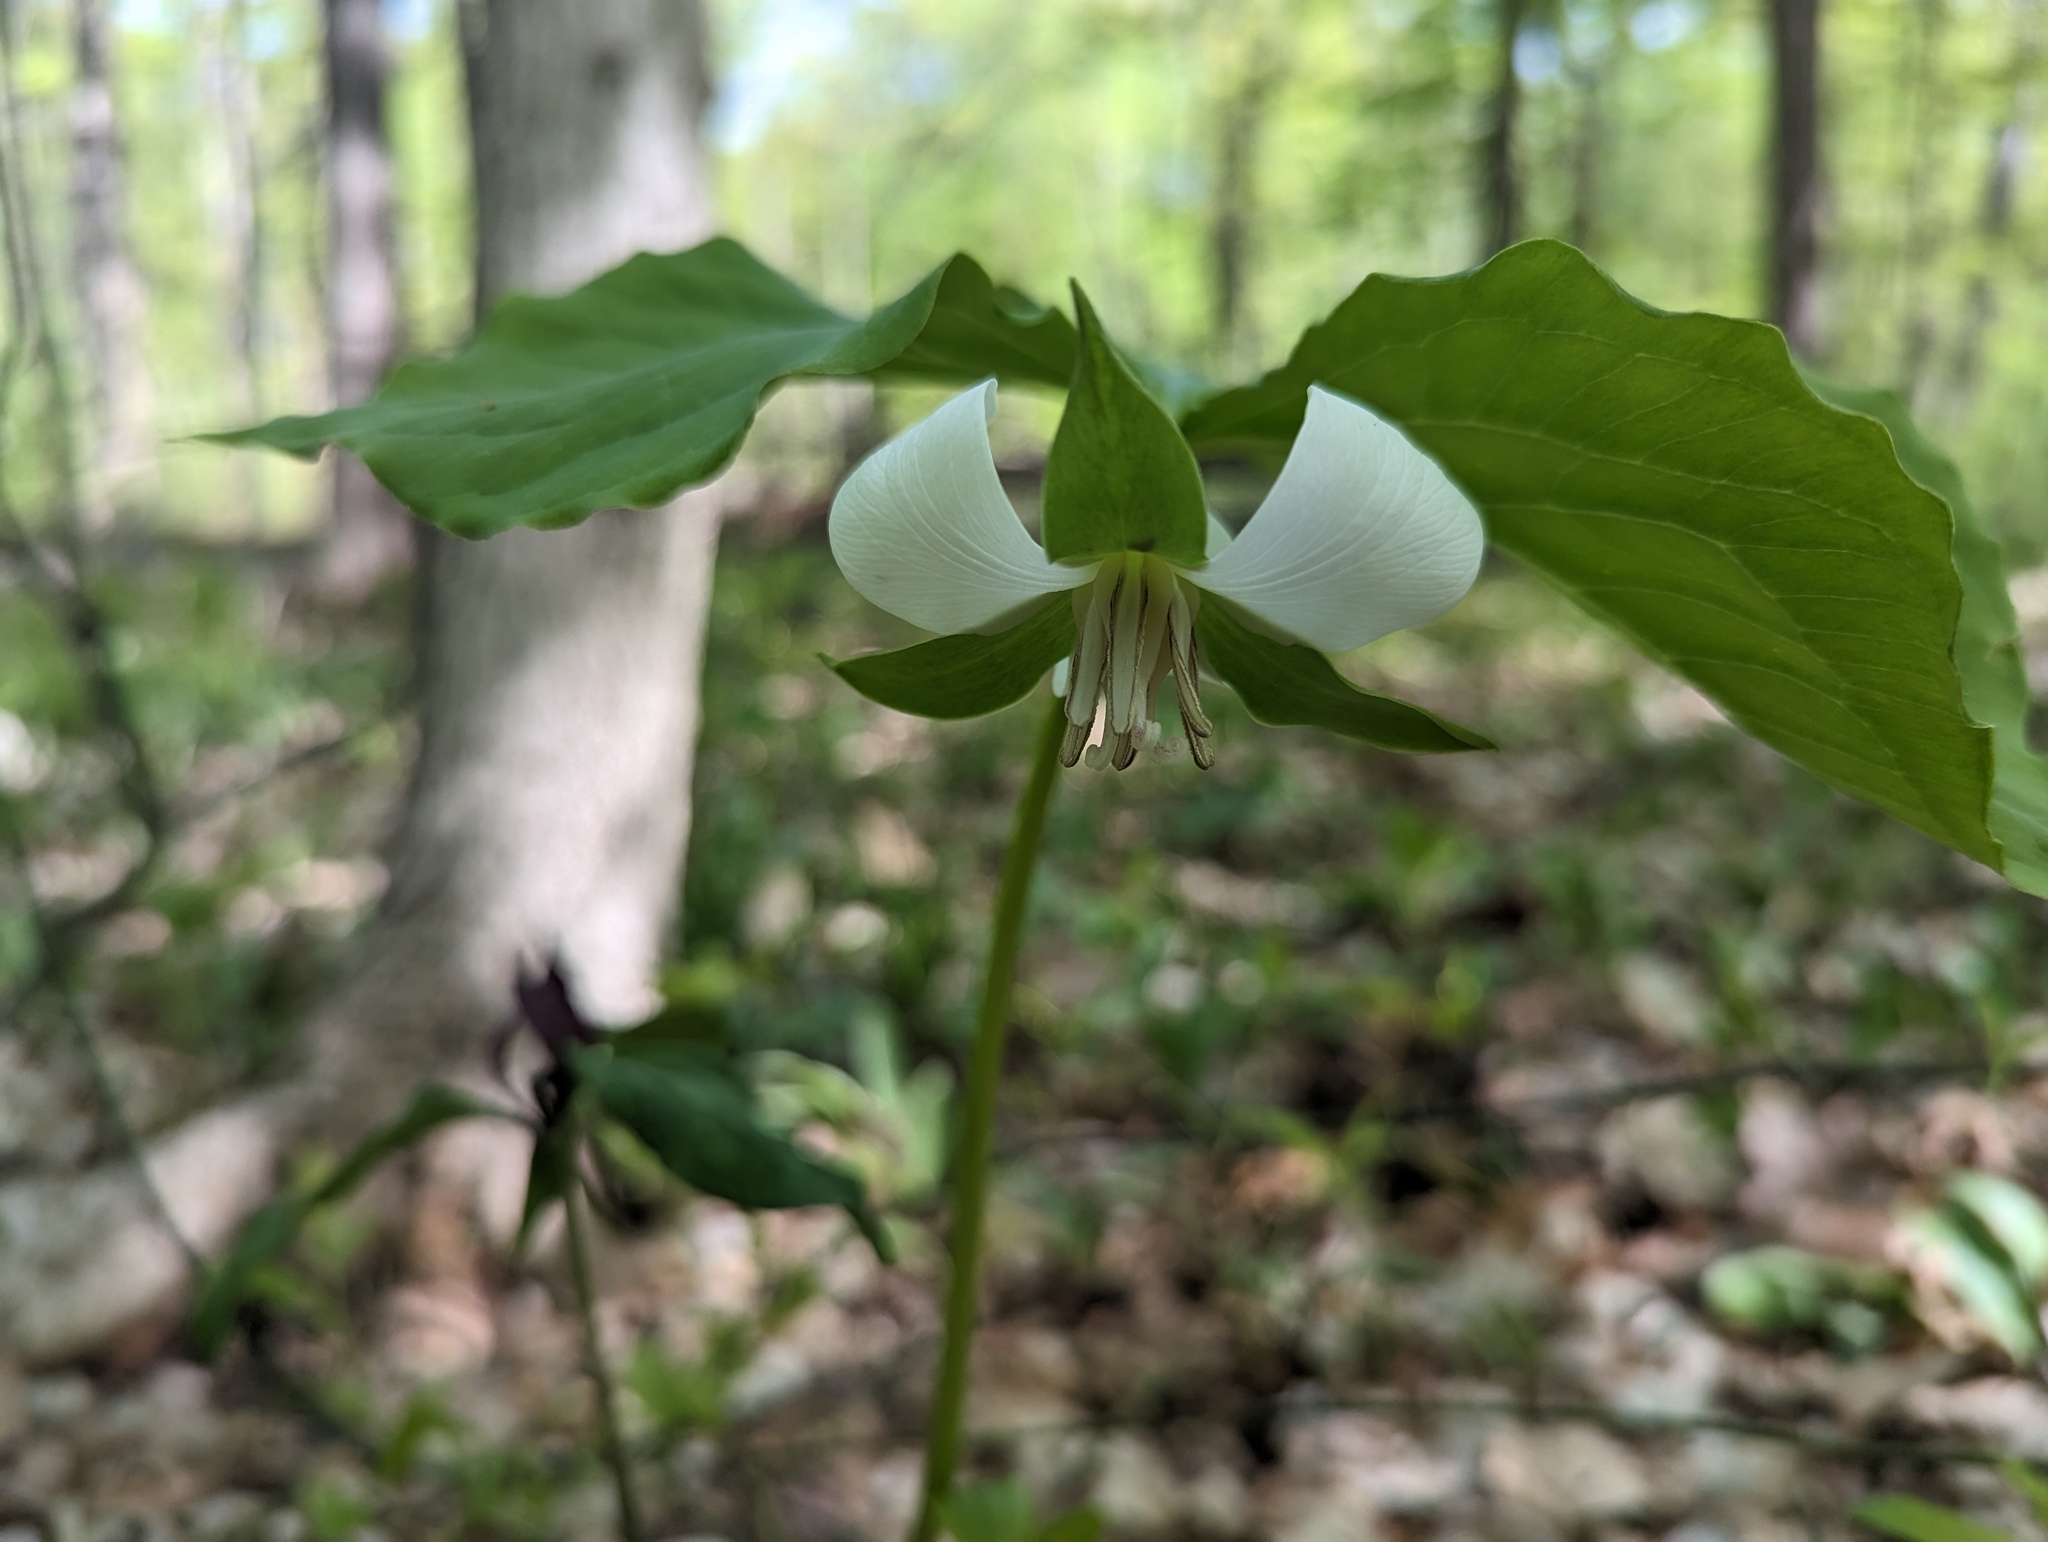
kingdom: Plantae
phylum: Tracheophyta
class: Liliopsida
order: Liliales
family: Melanthiaceae
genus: Trillium
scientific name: Trillium flexipes
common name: Drooping trillium
